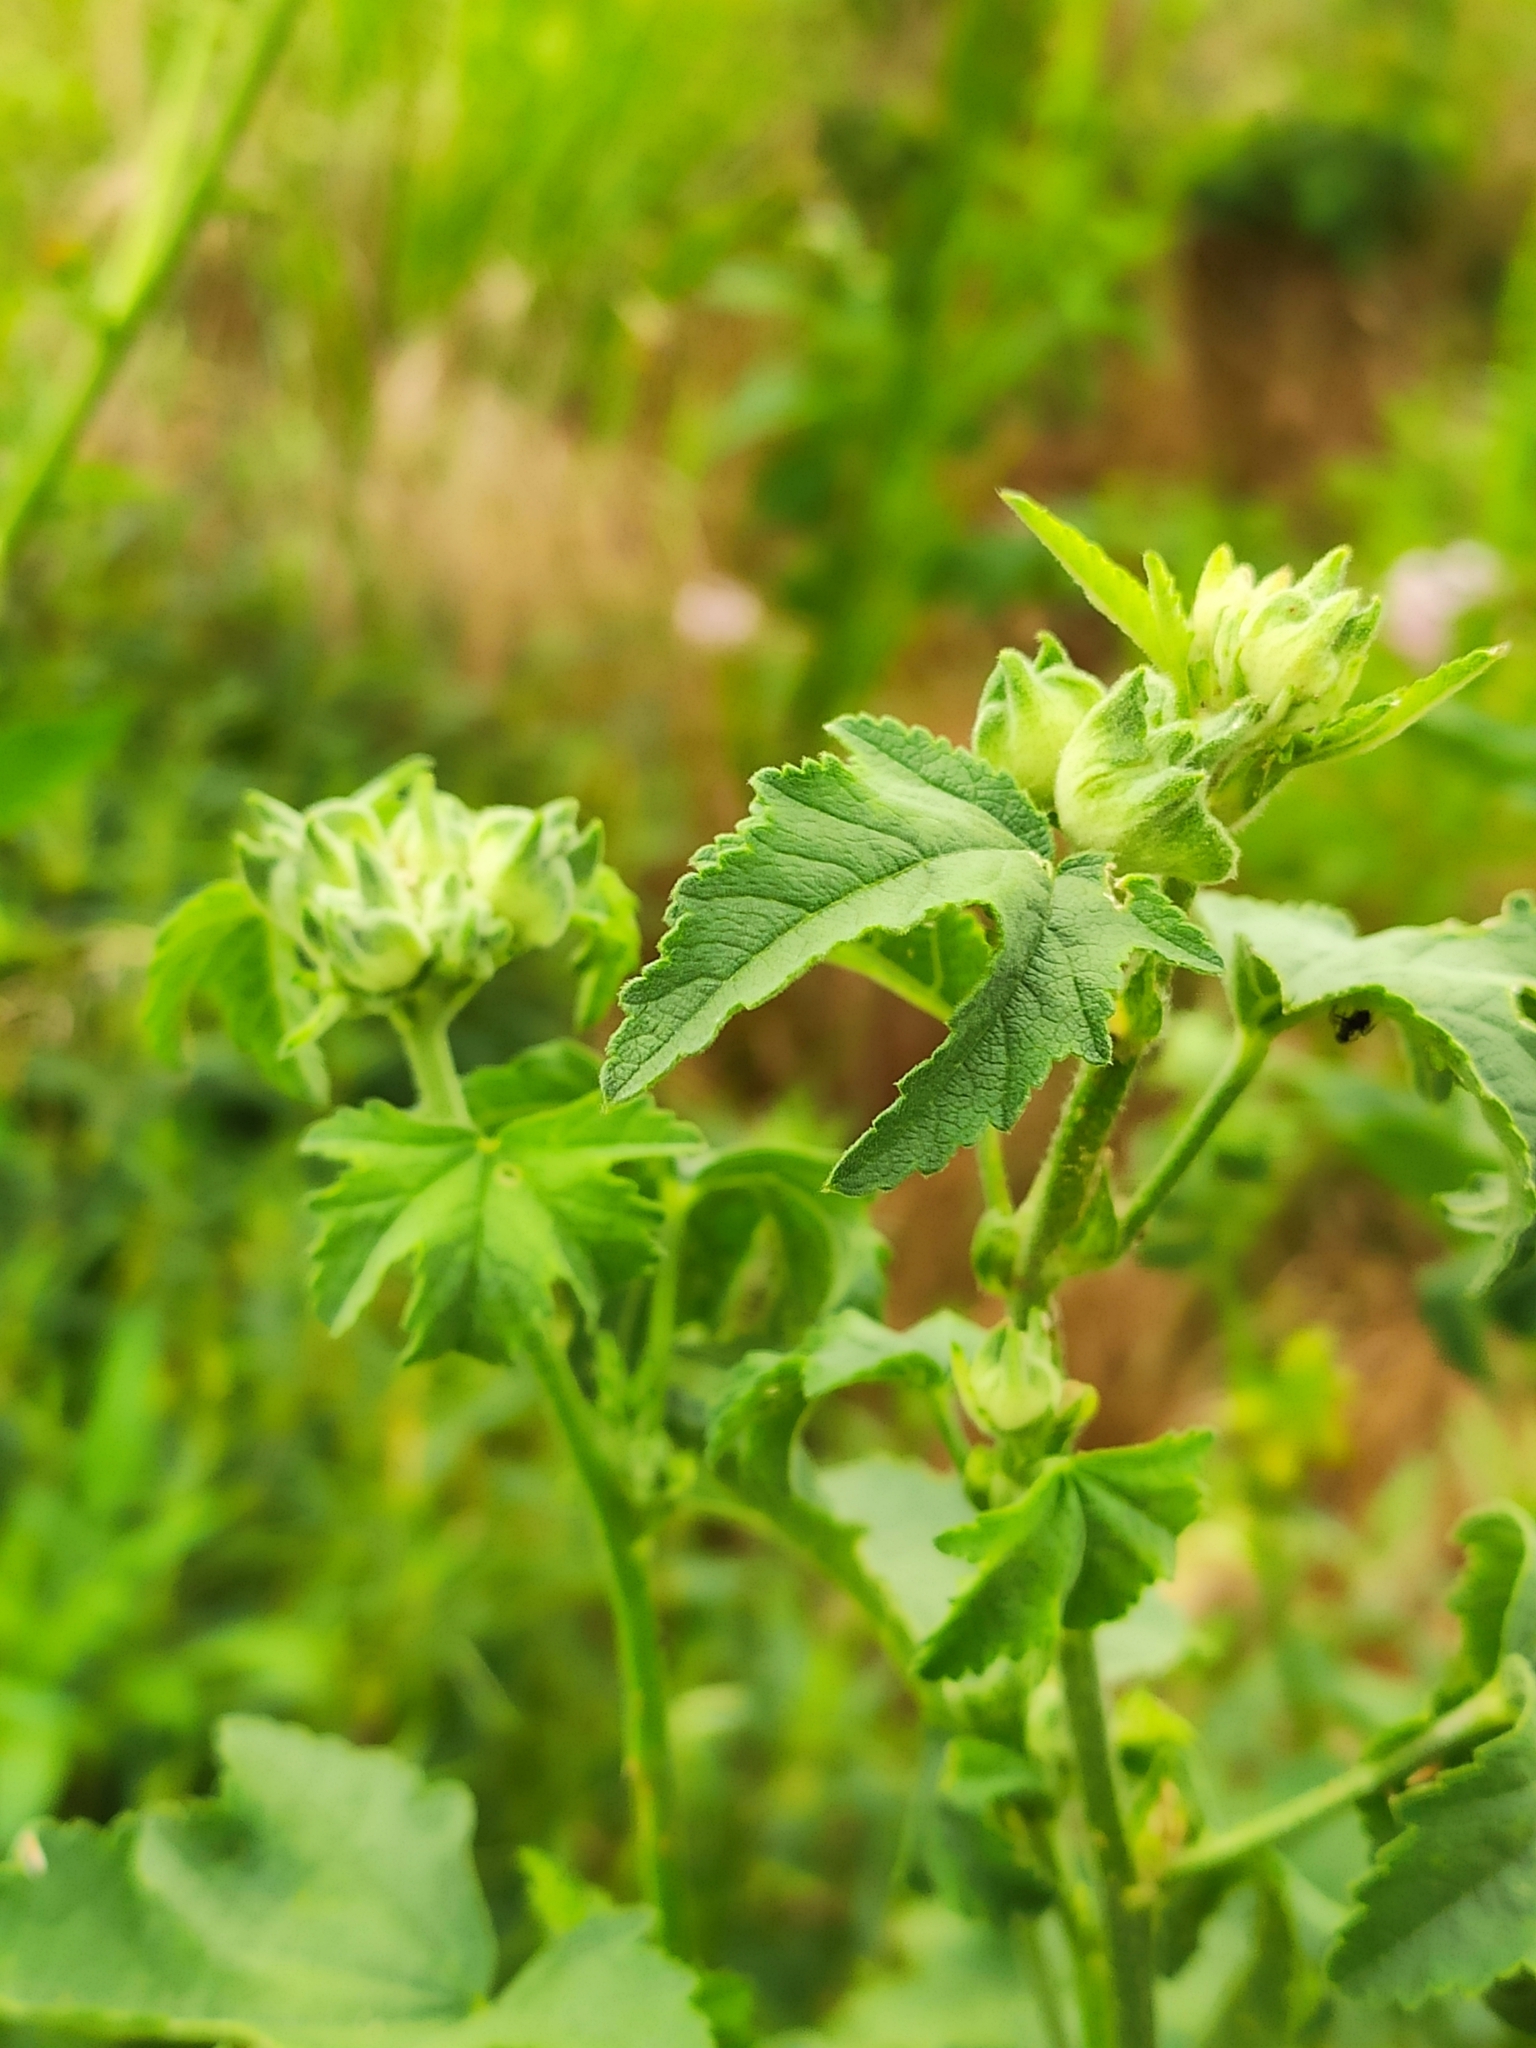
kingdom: Plantae
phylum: Tracheophyta
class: Magnoliopsida
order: Malvales
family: Malvaceae
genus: Malva
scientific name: Malva thuringiaca
